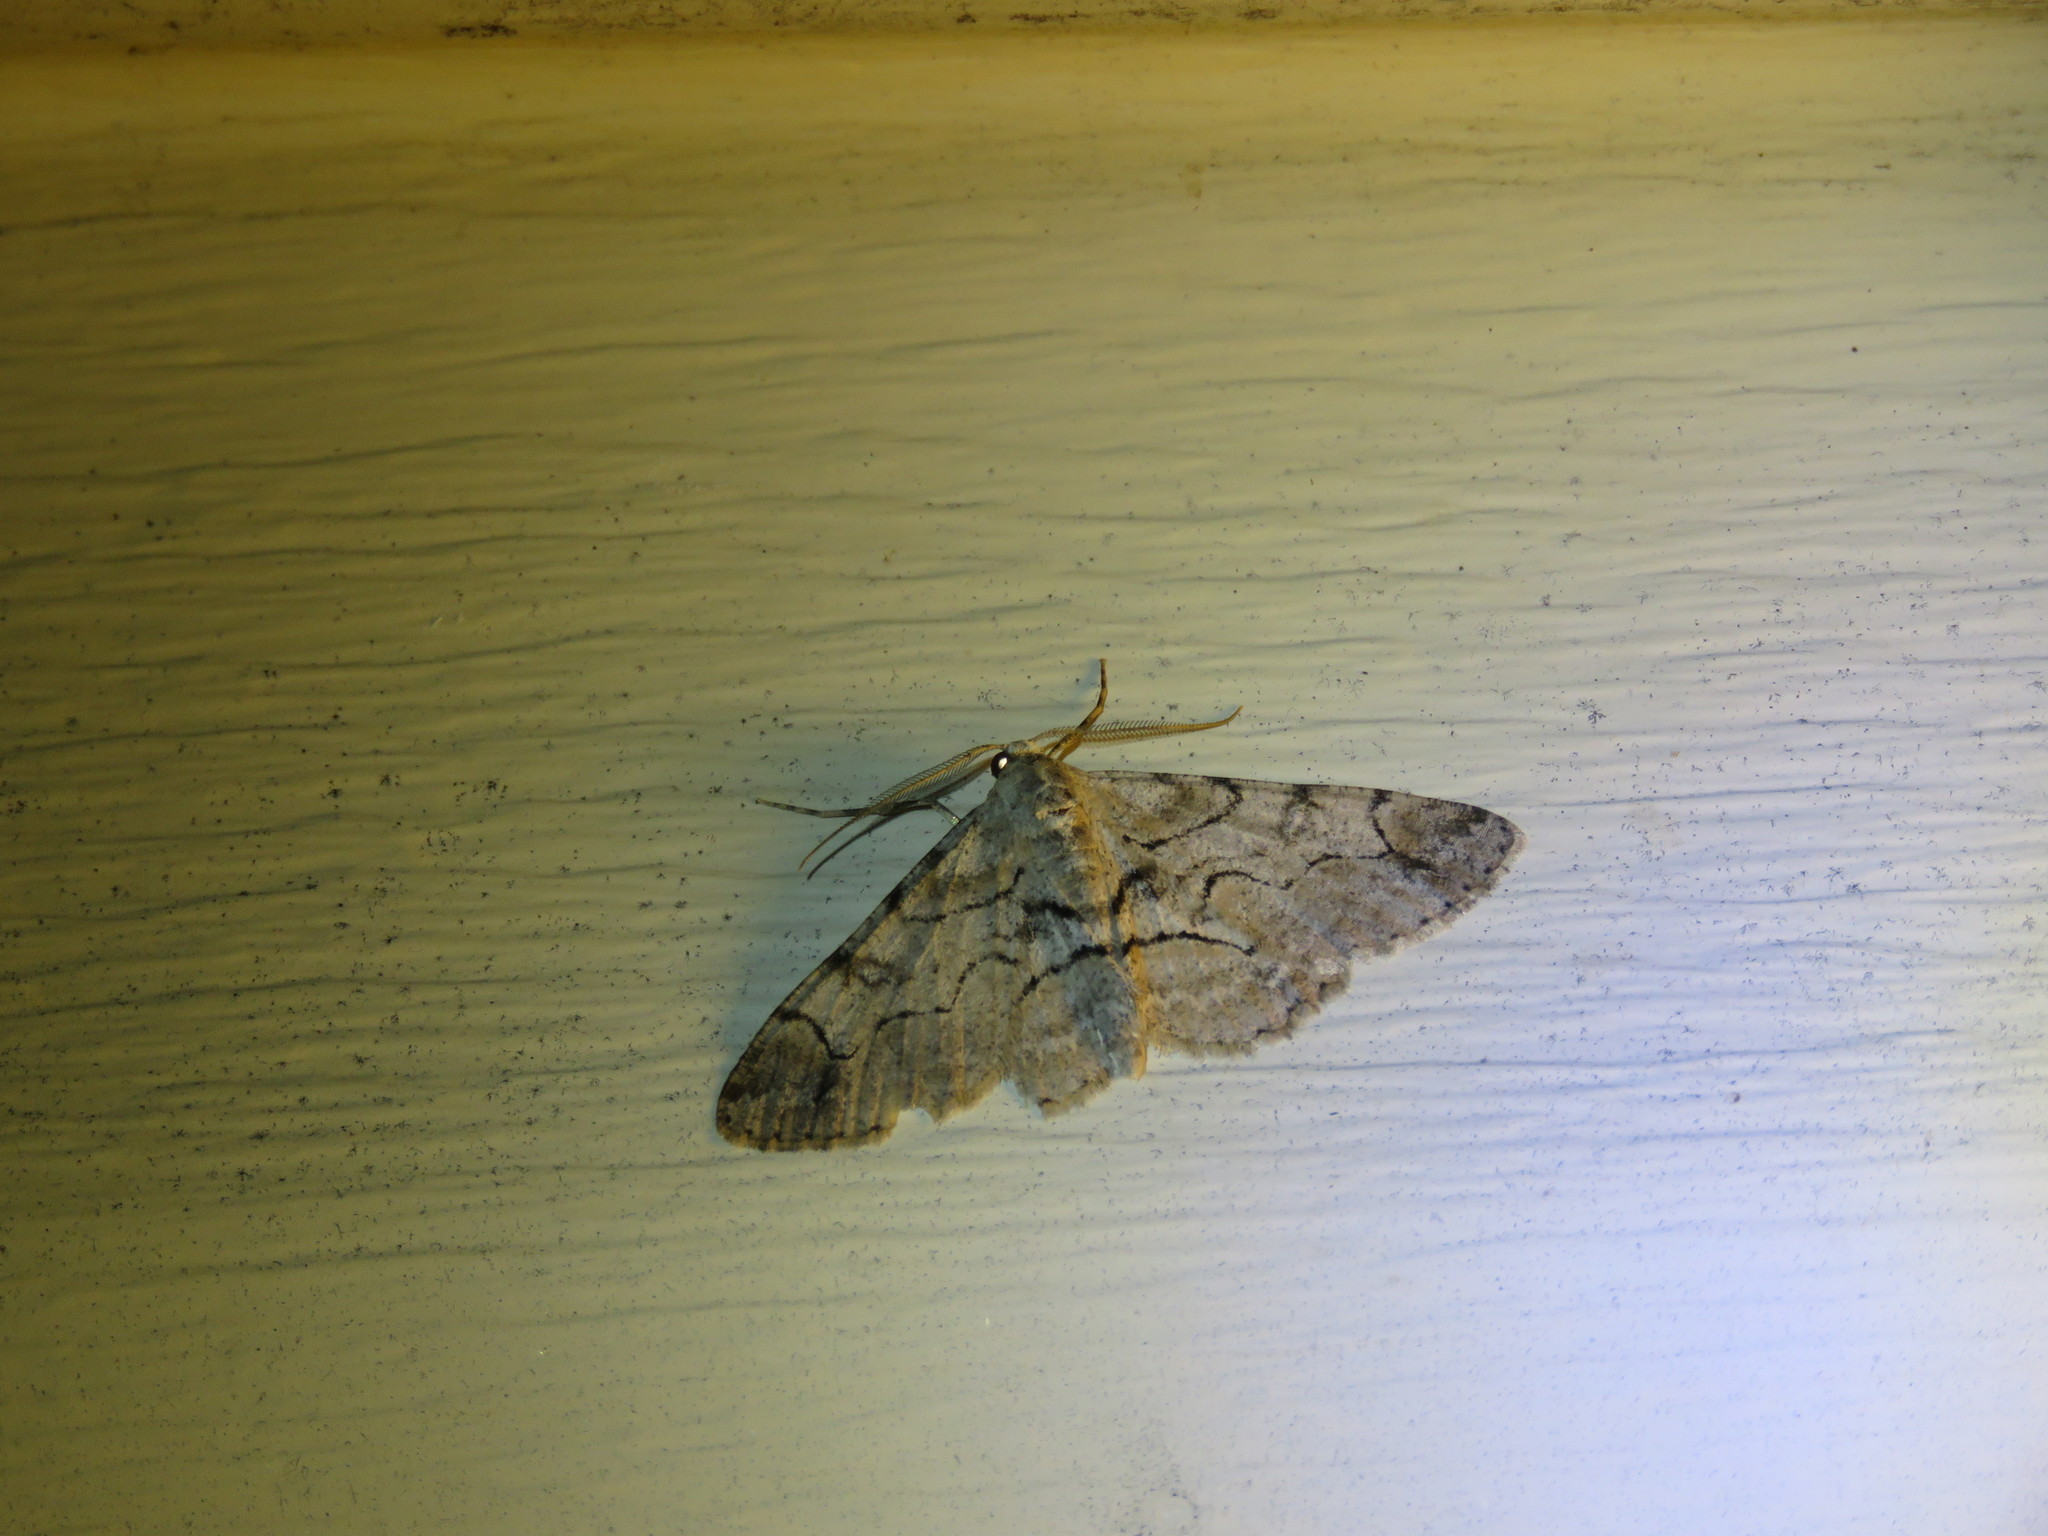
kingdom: Animalia
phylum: Arthropoda
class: Insecta
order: Lepidoptera
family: Geometridae
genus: Iridopsis
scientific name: Iridopsis larvaria
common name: Bent-line gray
